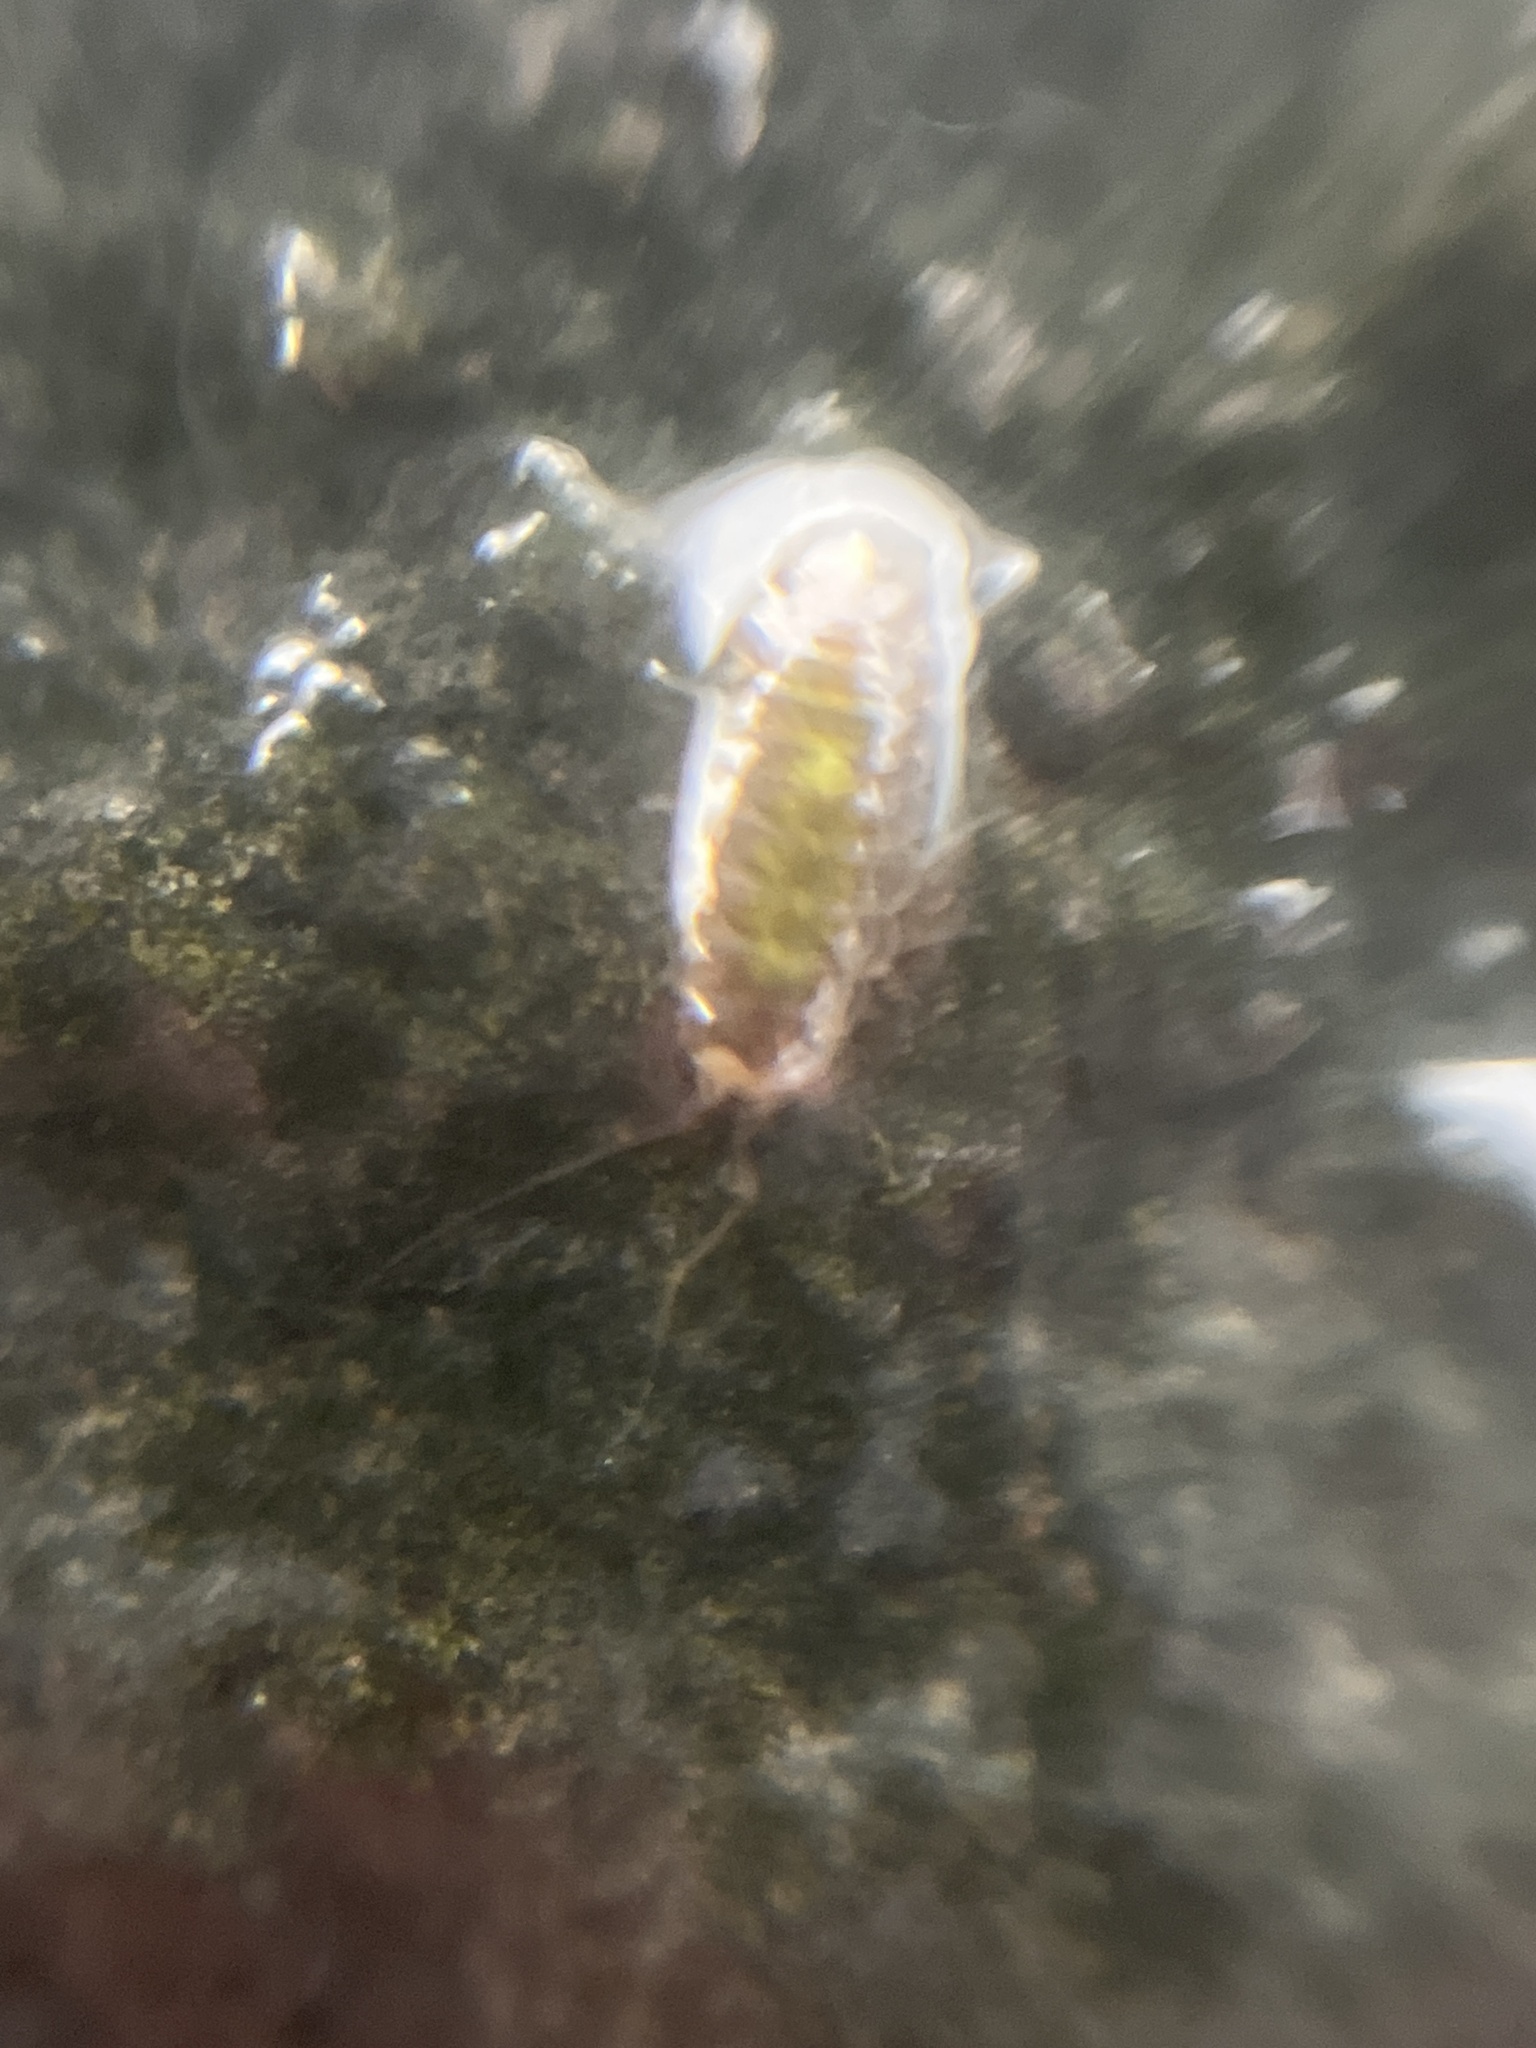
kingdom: Animalia
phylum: Arthropoda
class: Malacostraca
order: Isopoda
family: Janiridae
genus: Jaera
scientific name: Jaera
